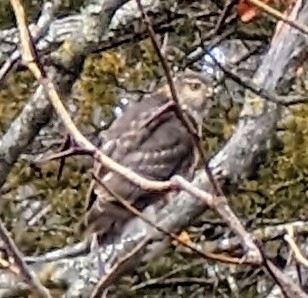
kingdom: Animalia
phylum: Chordata
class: Aves
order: Accipitriformes
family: Accipitridae
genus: Accipiter
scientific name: Accipiter striatus
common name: Sharp-shinned hawk
